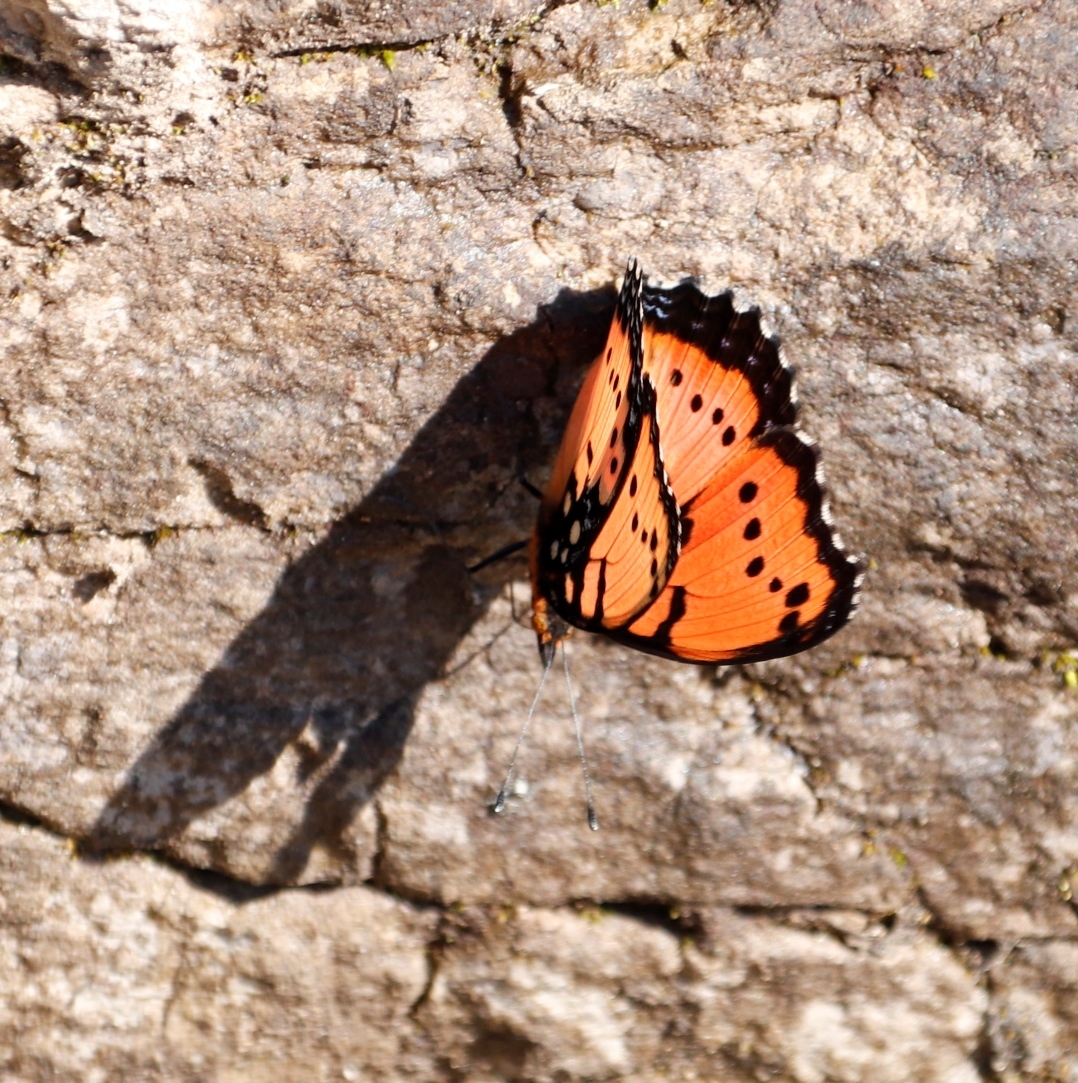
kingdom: Animalia
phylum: Arthropoda
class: Insecta
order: Lepidoptera
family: Nymphalidae
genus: Precis
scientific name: Precis octavia
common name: Gaudy commodore
